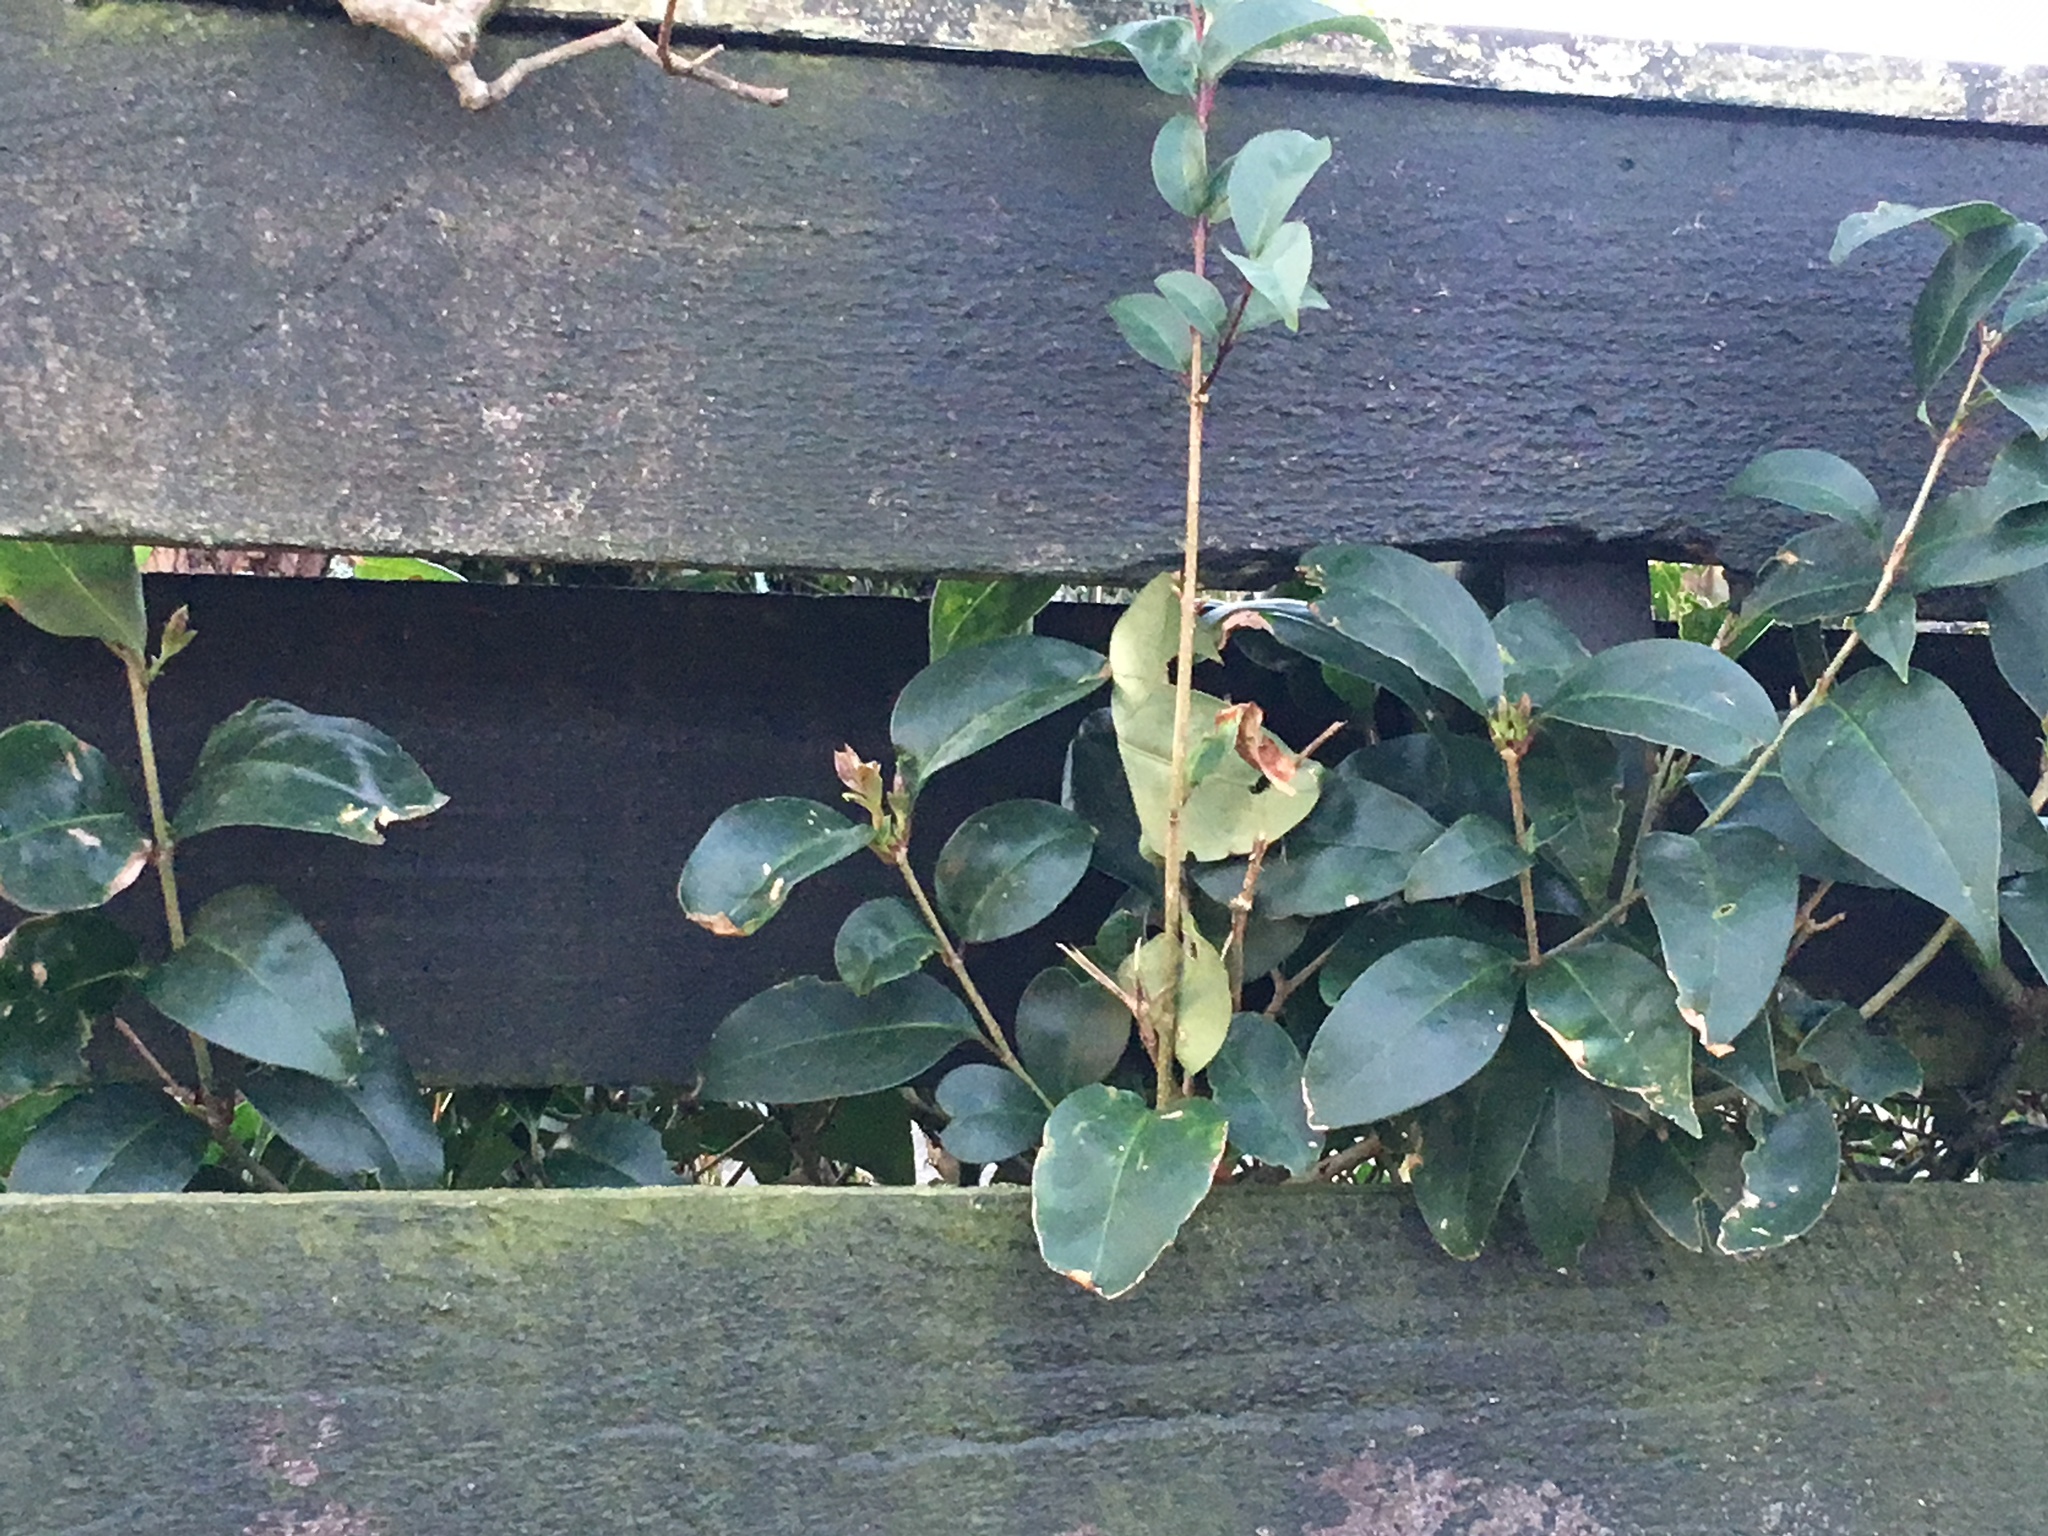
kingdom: Plantae
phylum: Tracheophyta
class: Magnoliopsida
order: Lamiales
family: Oleaceae
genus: Ligustrum
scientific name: Ligustrum lucidum
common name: Glossy privet
